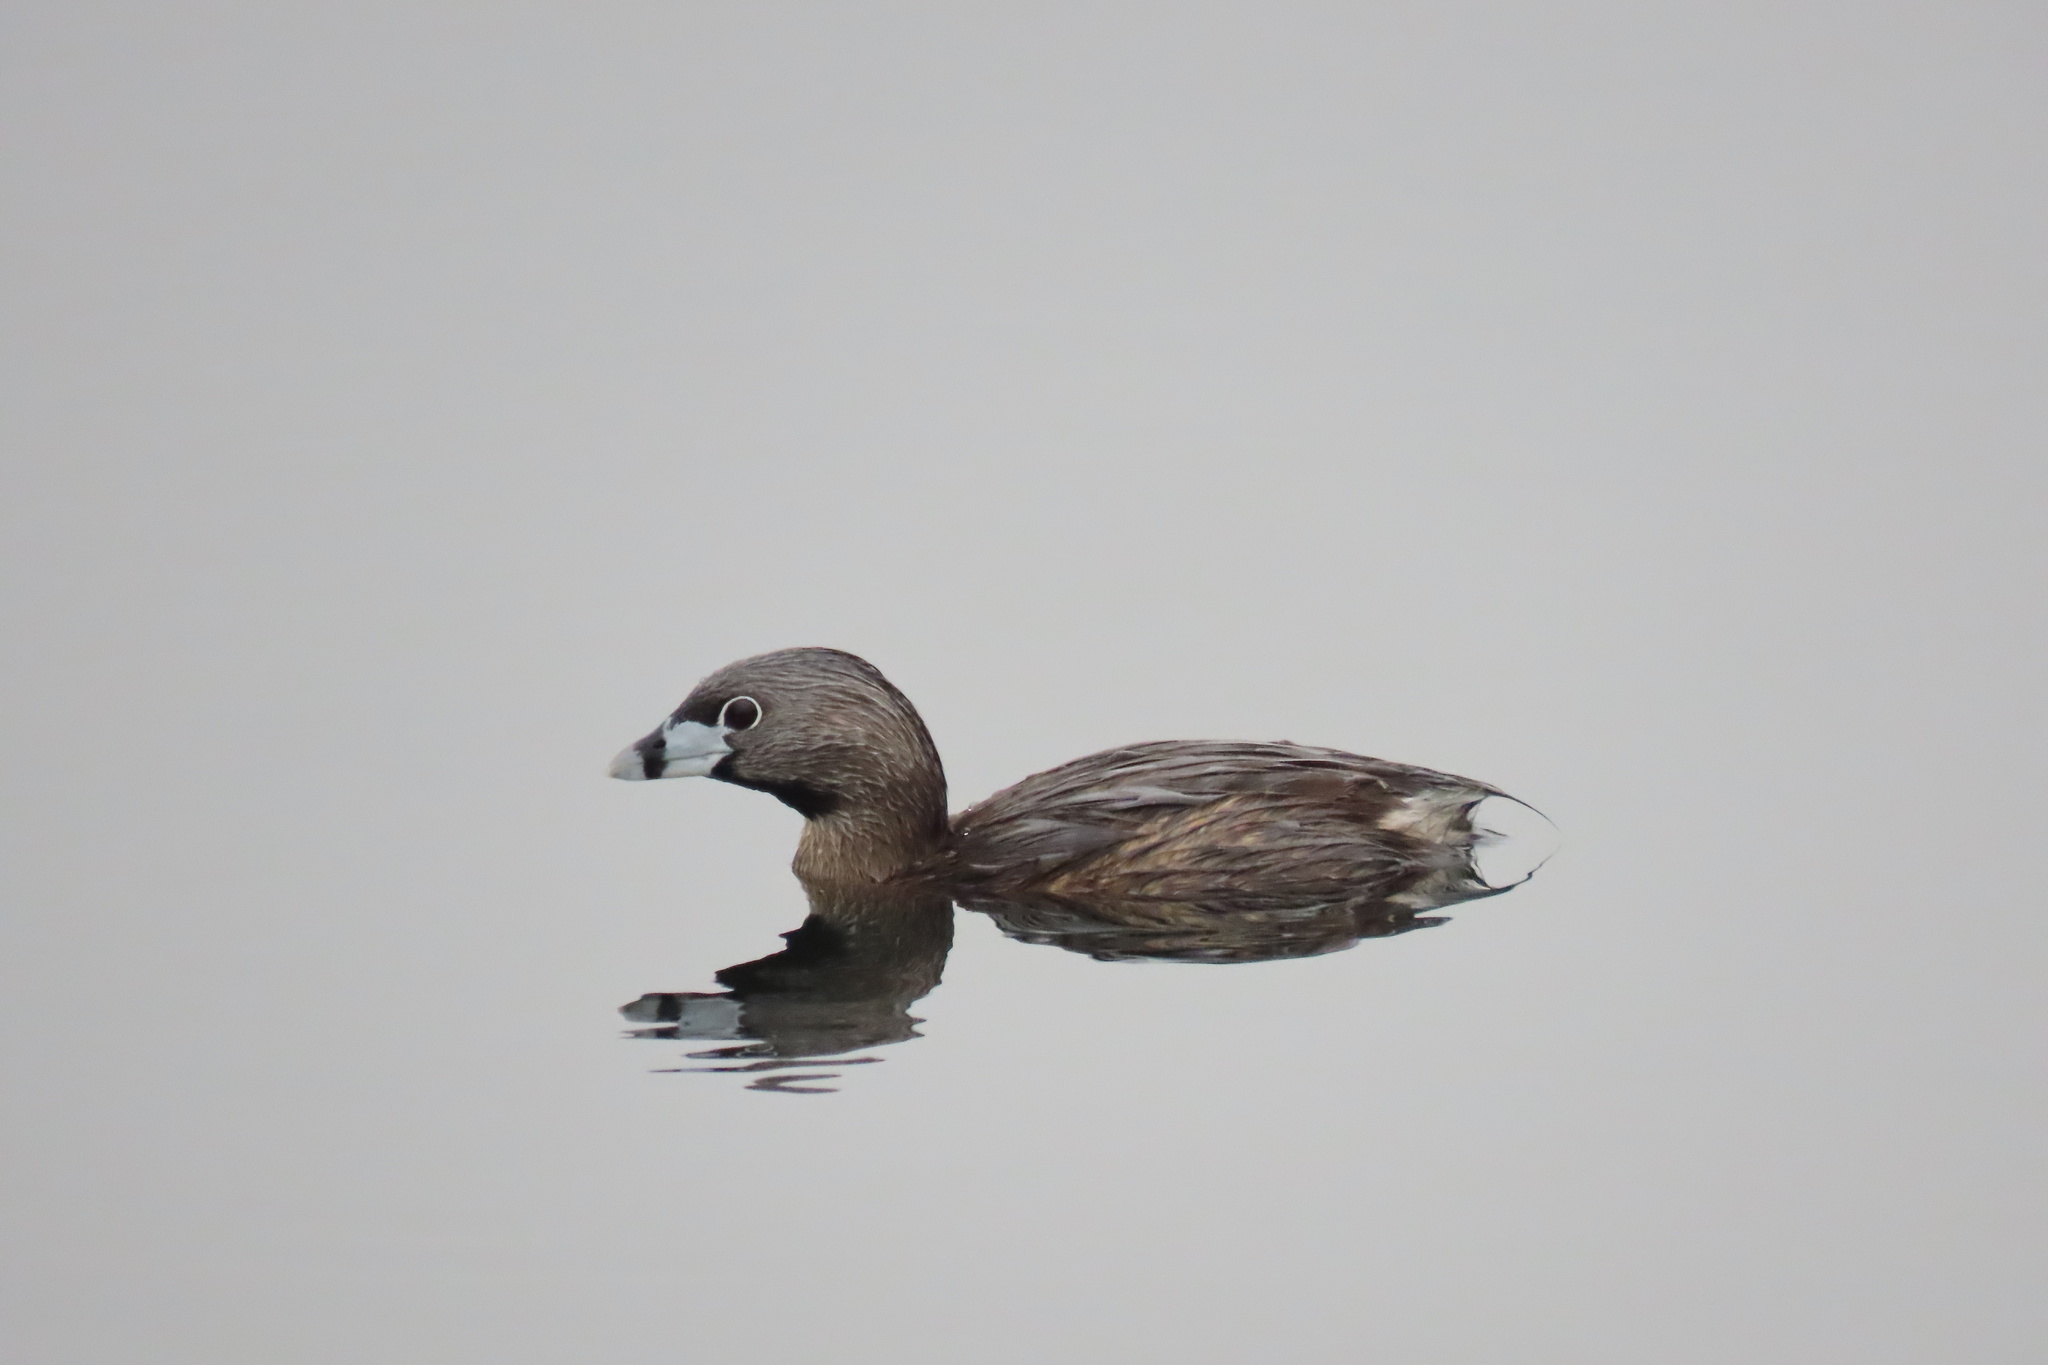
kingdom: Animalia
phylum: Chordata
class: Aves
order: Podicipediformes
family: Podicipedidae
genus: Podilymbus
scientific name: Podilymbus podiceps
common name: Pied-billed grebe
